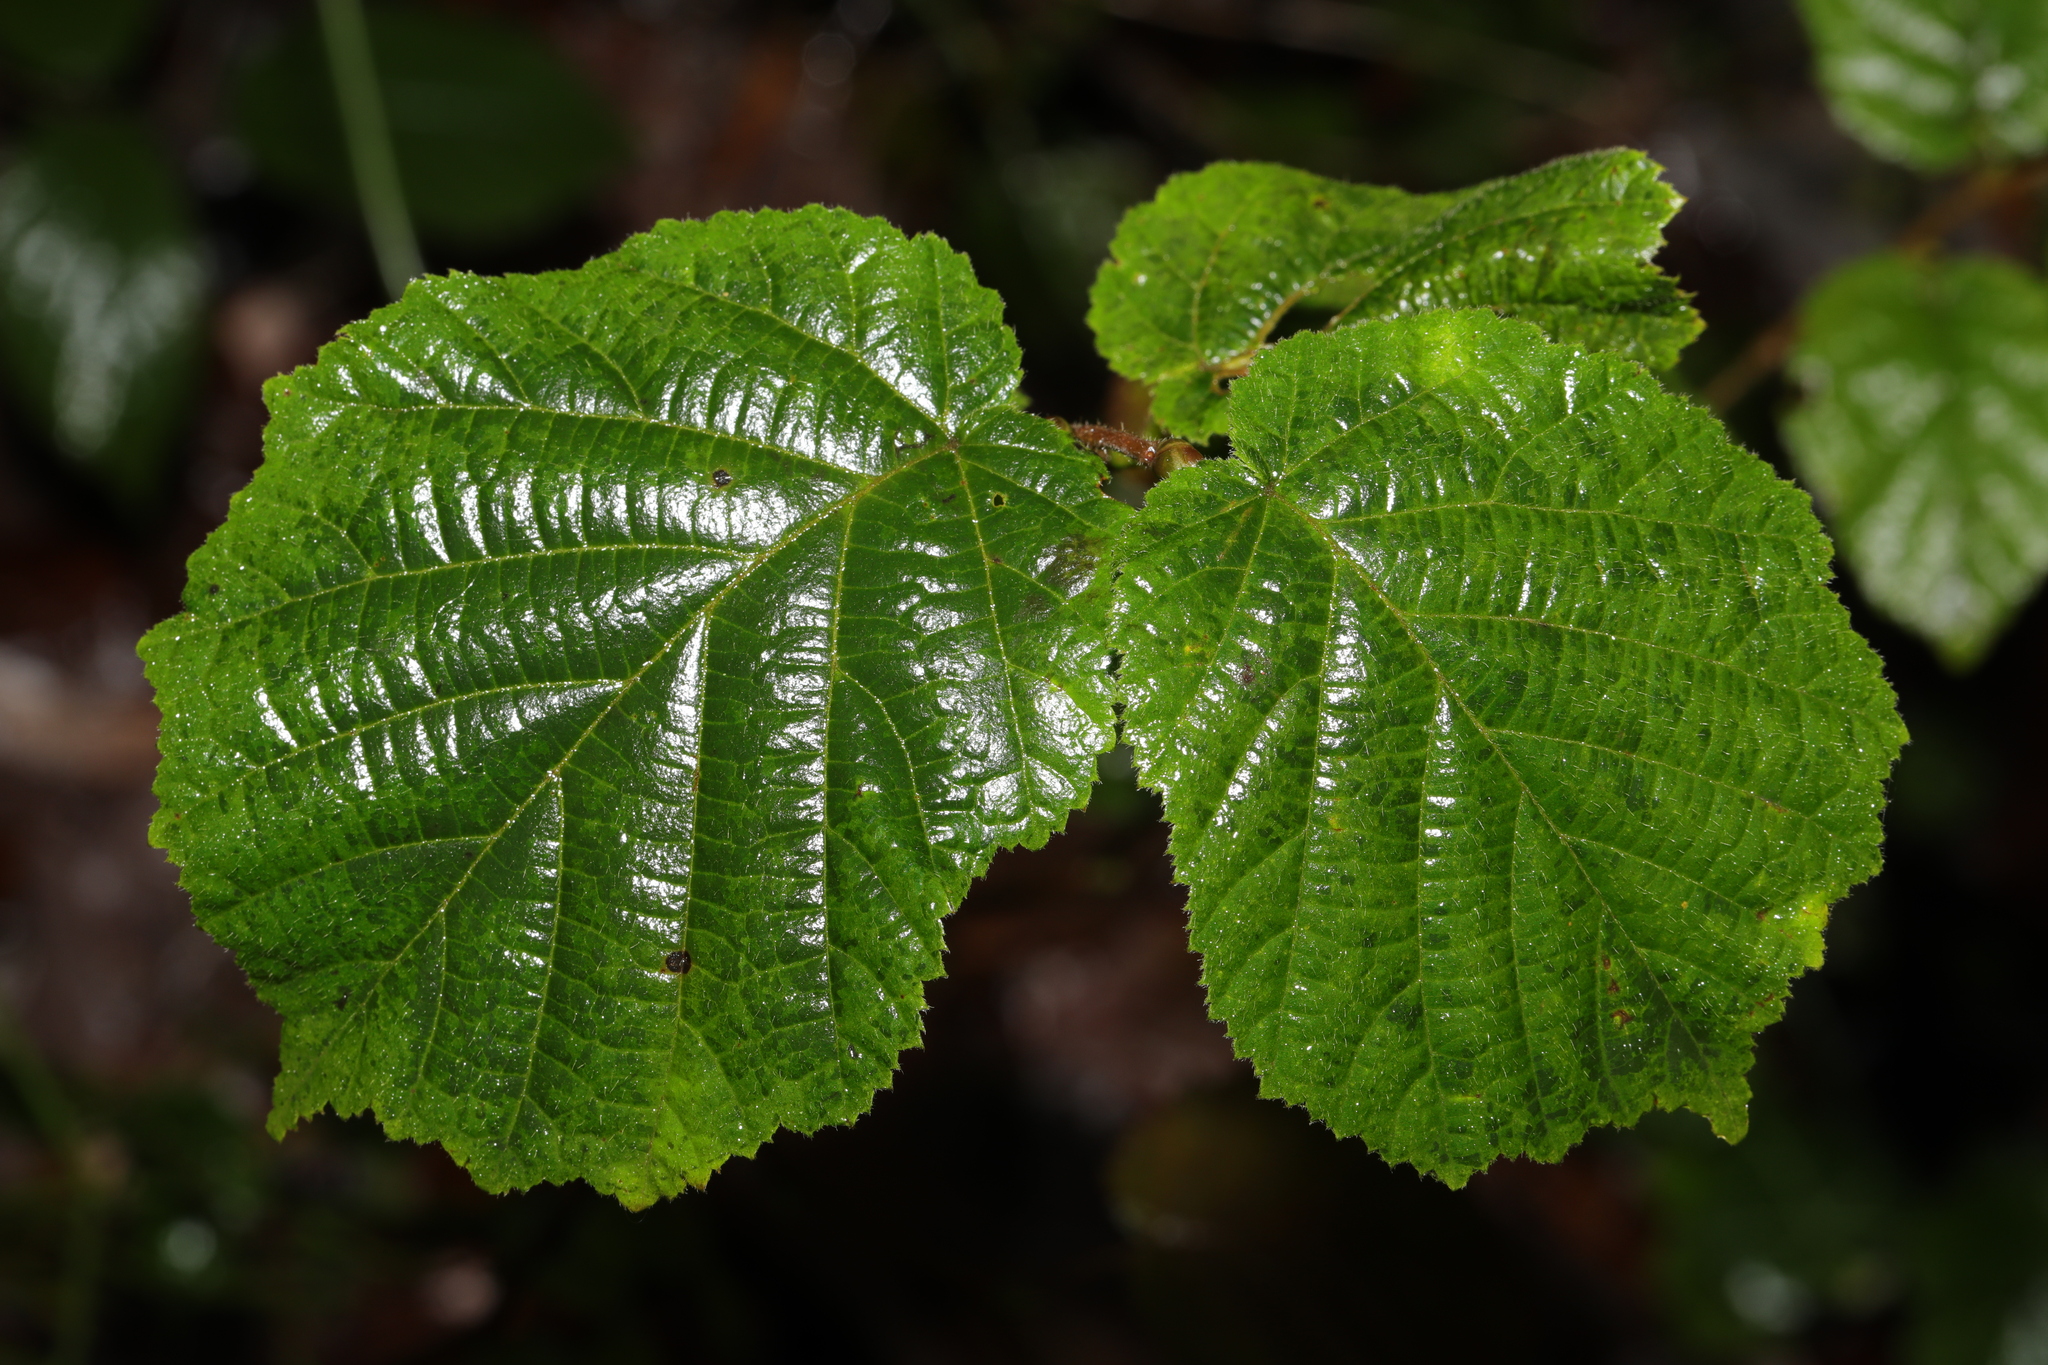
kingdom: Plantae
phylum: Tracheophyta
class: Magnoliopsida
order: Fagales
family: Betulaceae
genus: Corylus
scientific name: Corylus avellana
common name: European hazel
